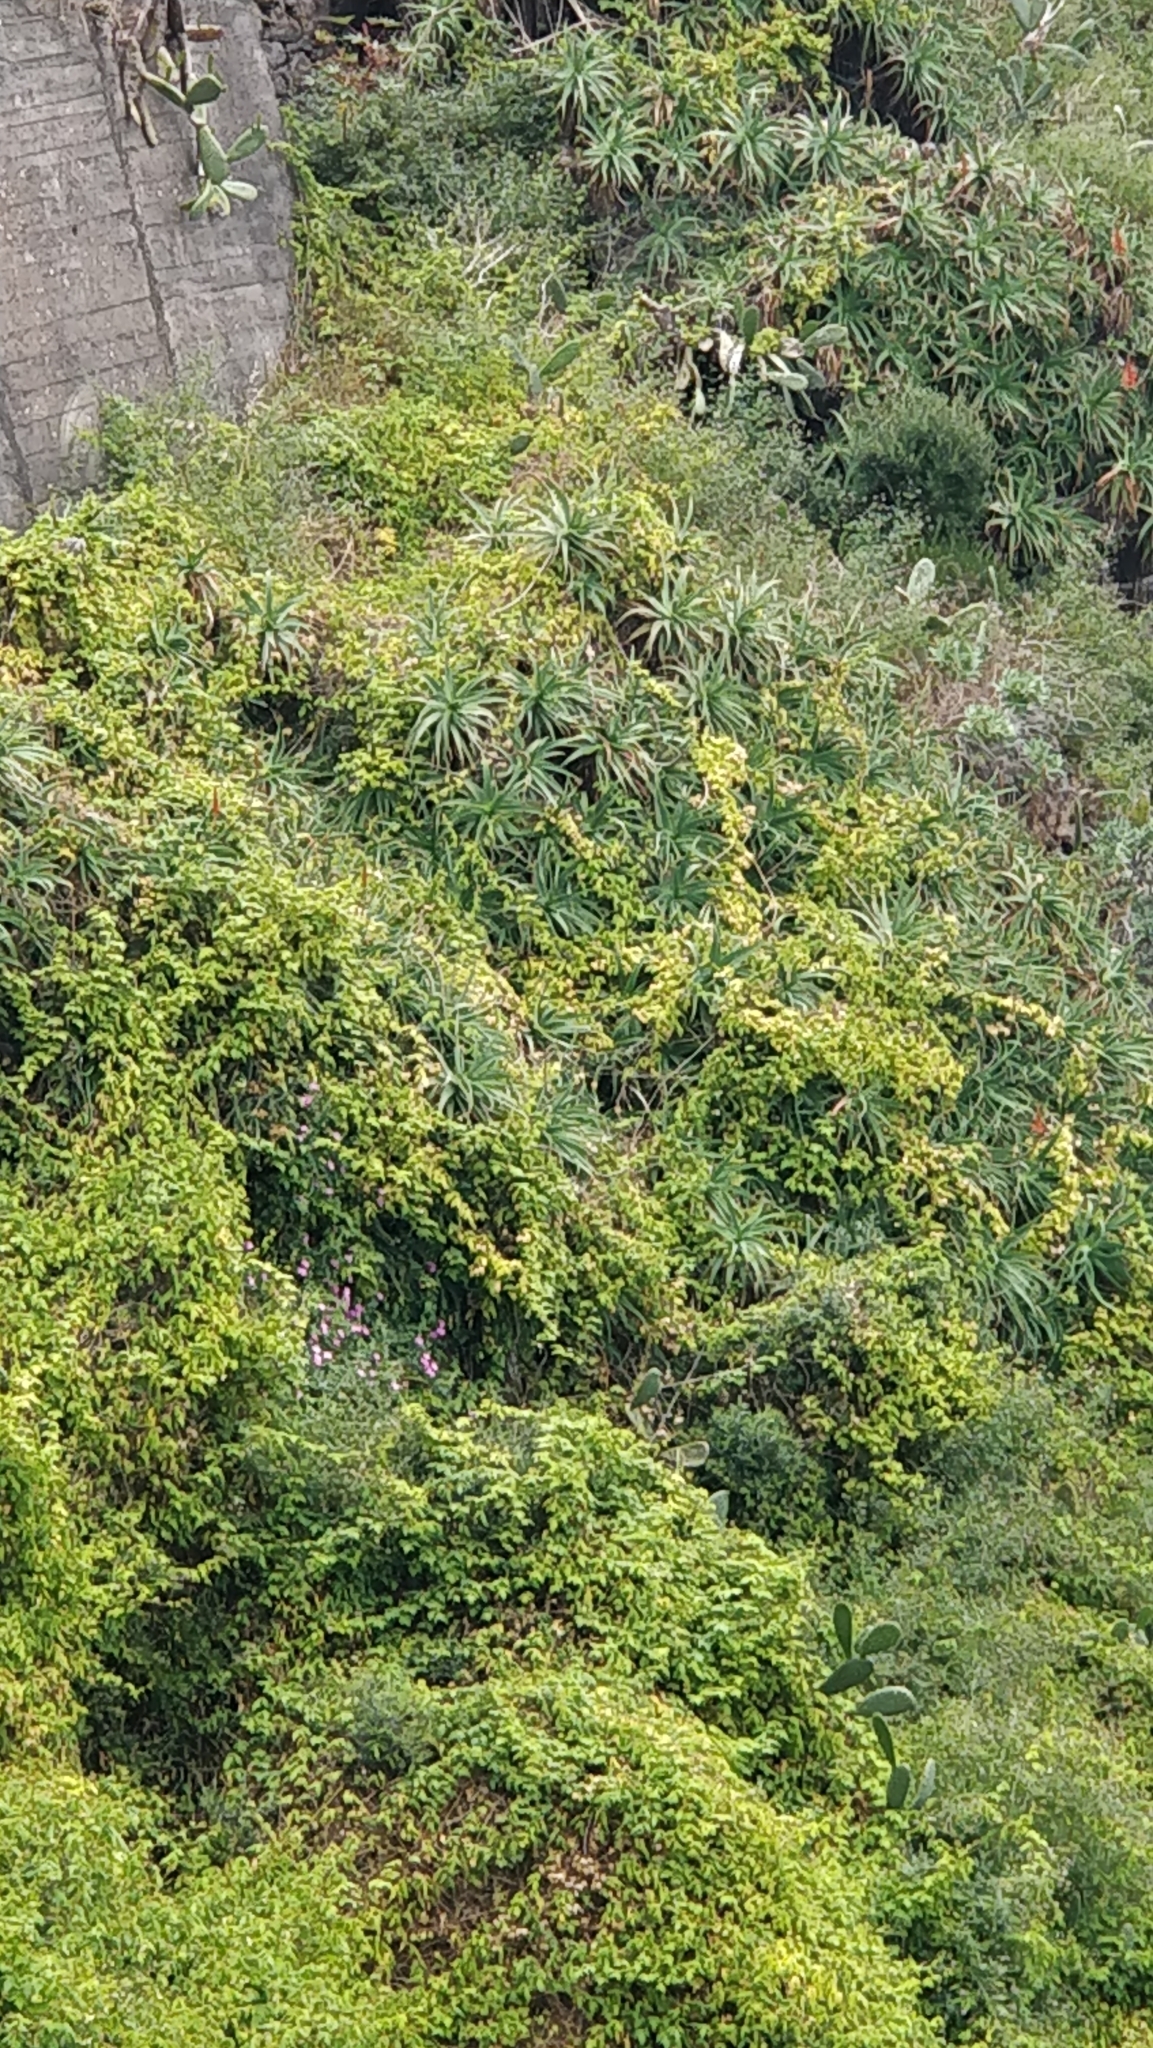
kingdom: Plantae
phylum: Tracheophyta
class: Liliopsida
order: Asparagales
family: Asphodelaceae
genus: Aloe
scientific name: Aloe arborescens
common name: Candelabra aloe
